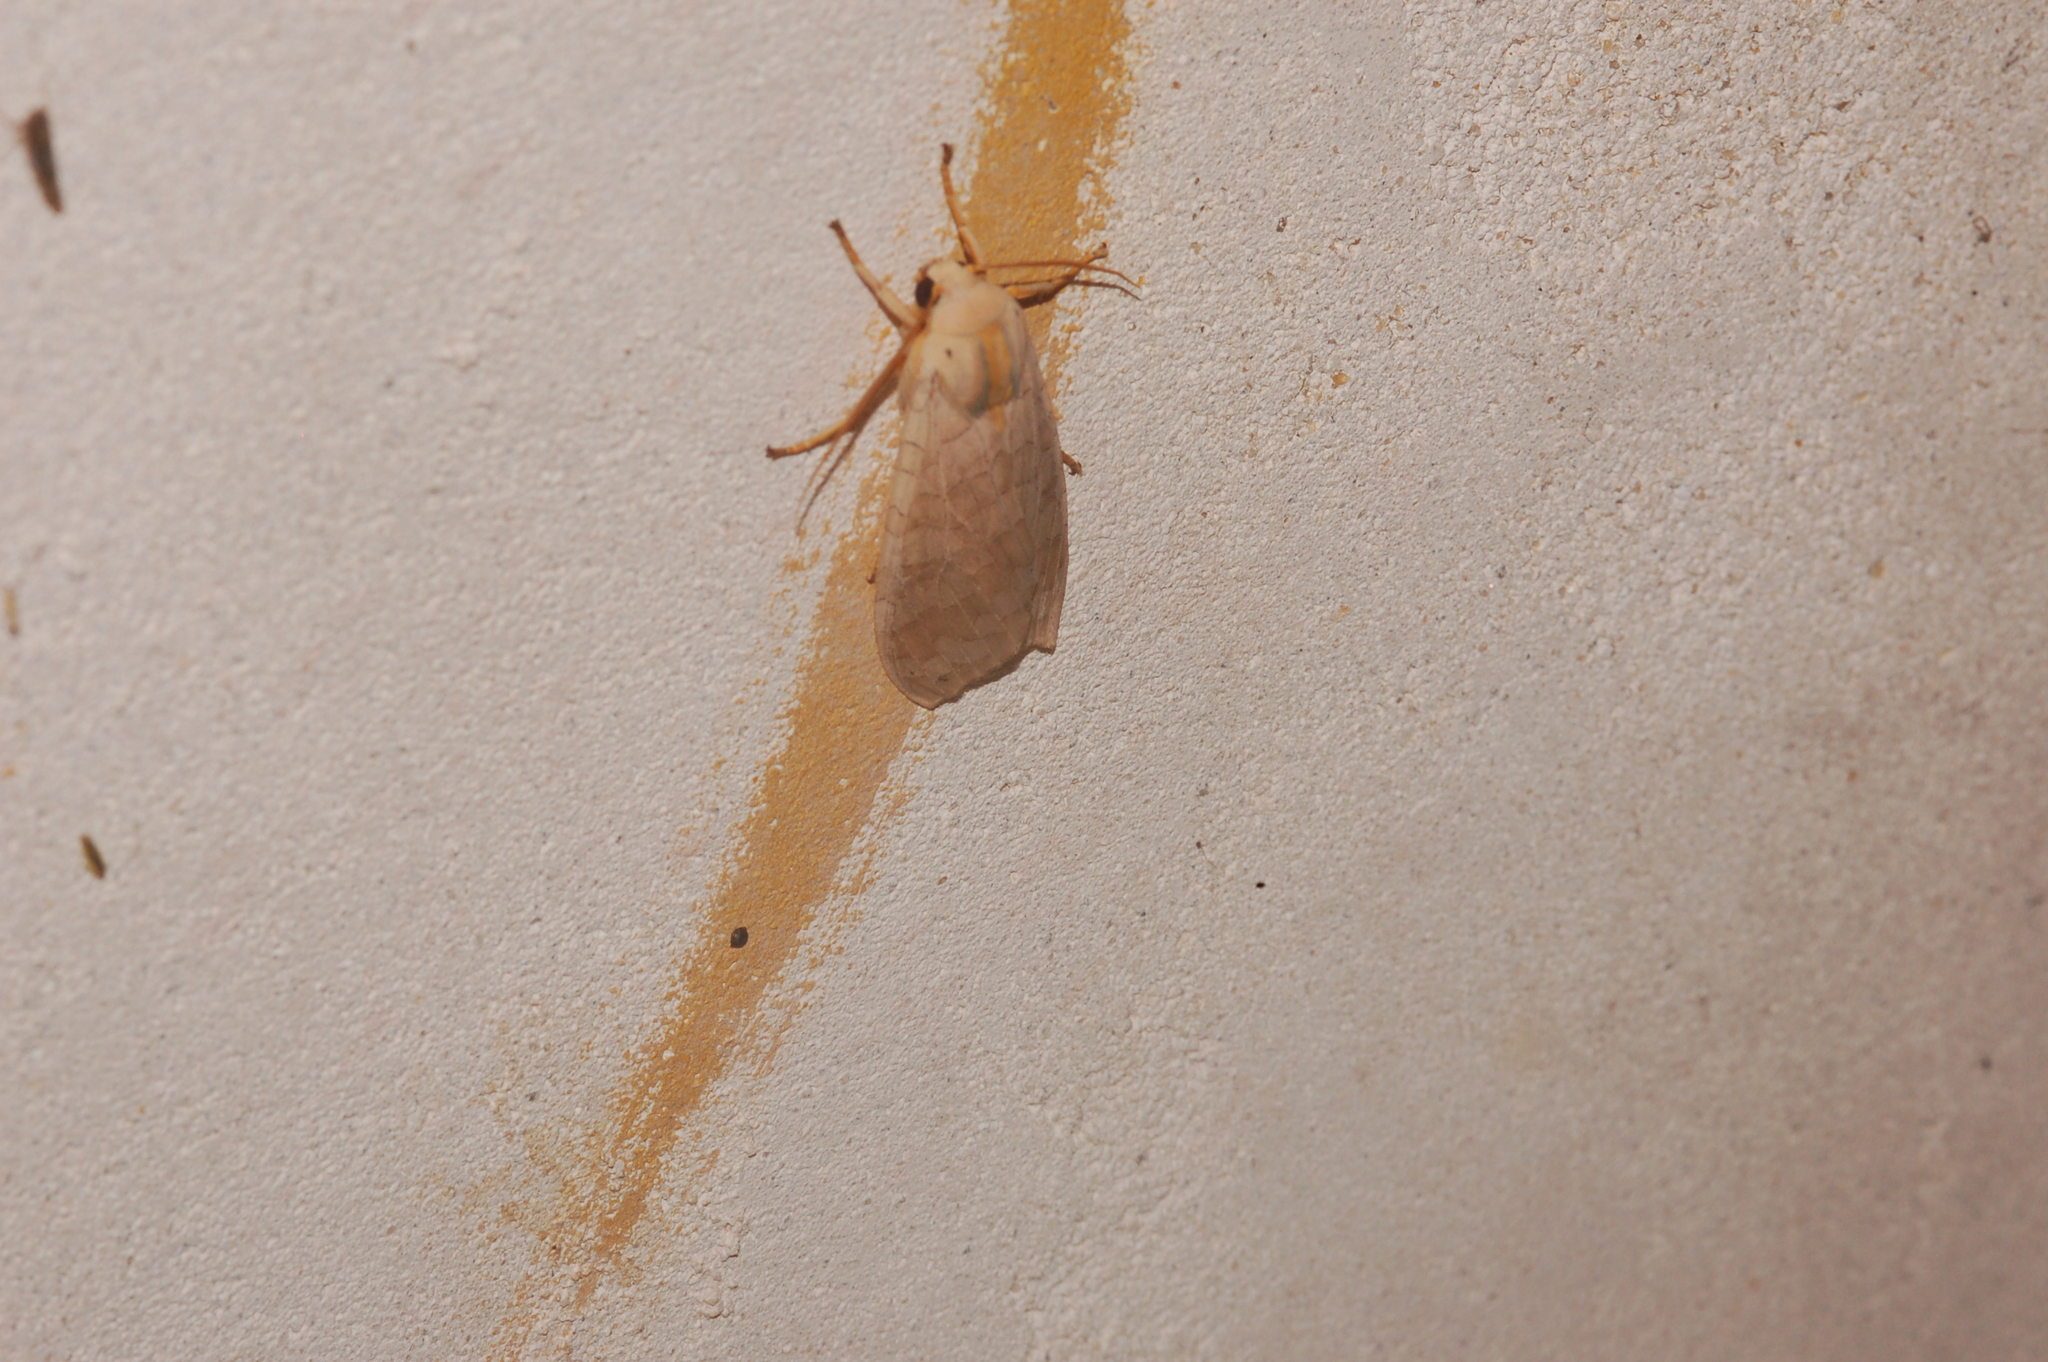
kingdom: Animalia
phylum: Arthropoda
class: Insecta
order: Lepidoptera
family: Erebidae
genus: Halysidota
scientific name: Halysidota
